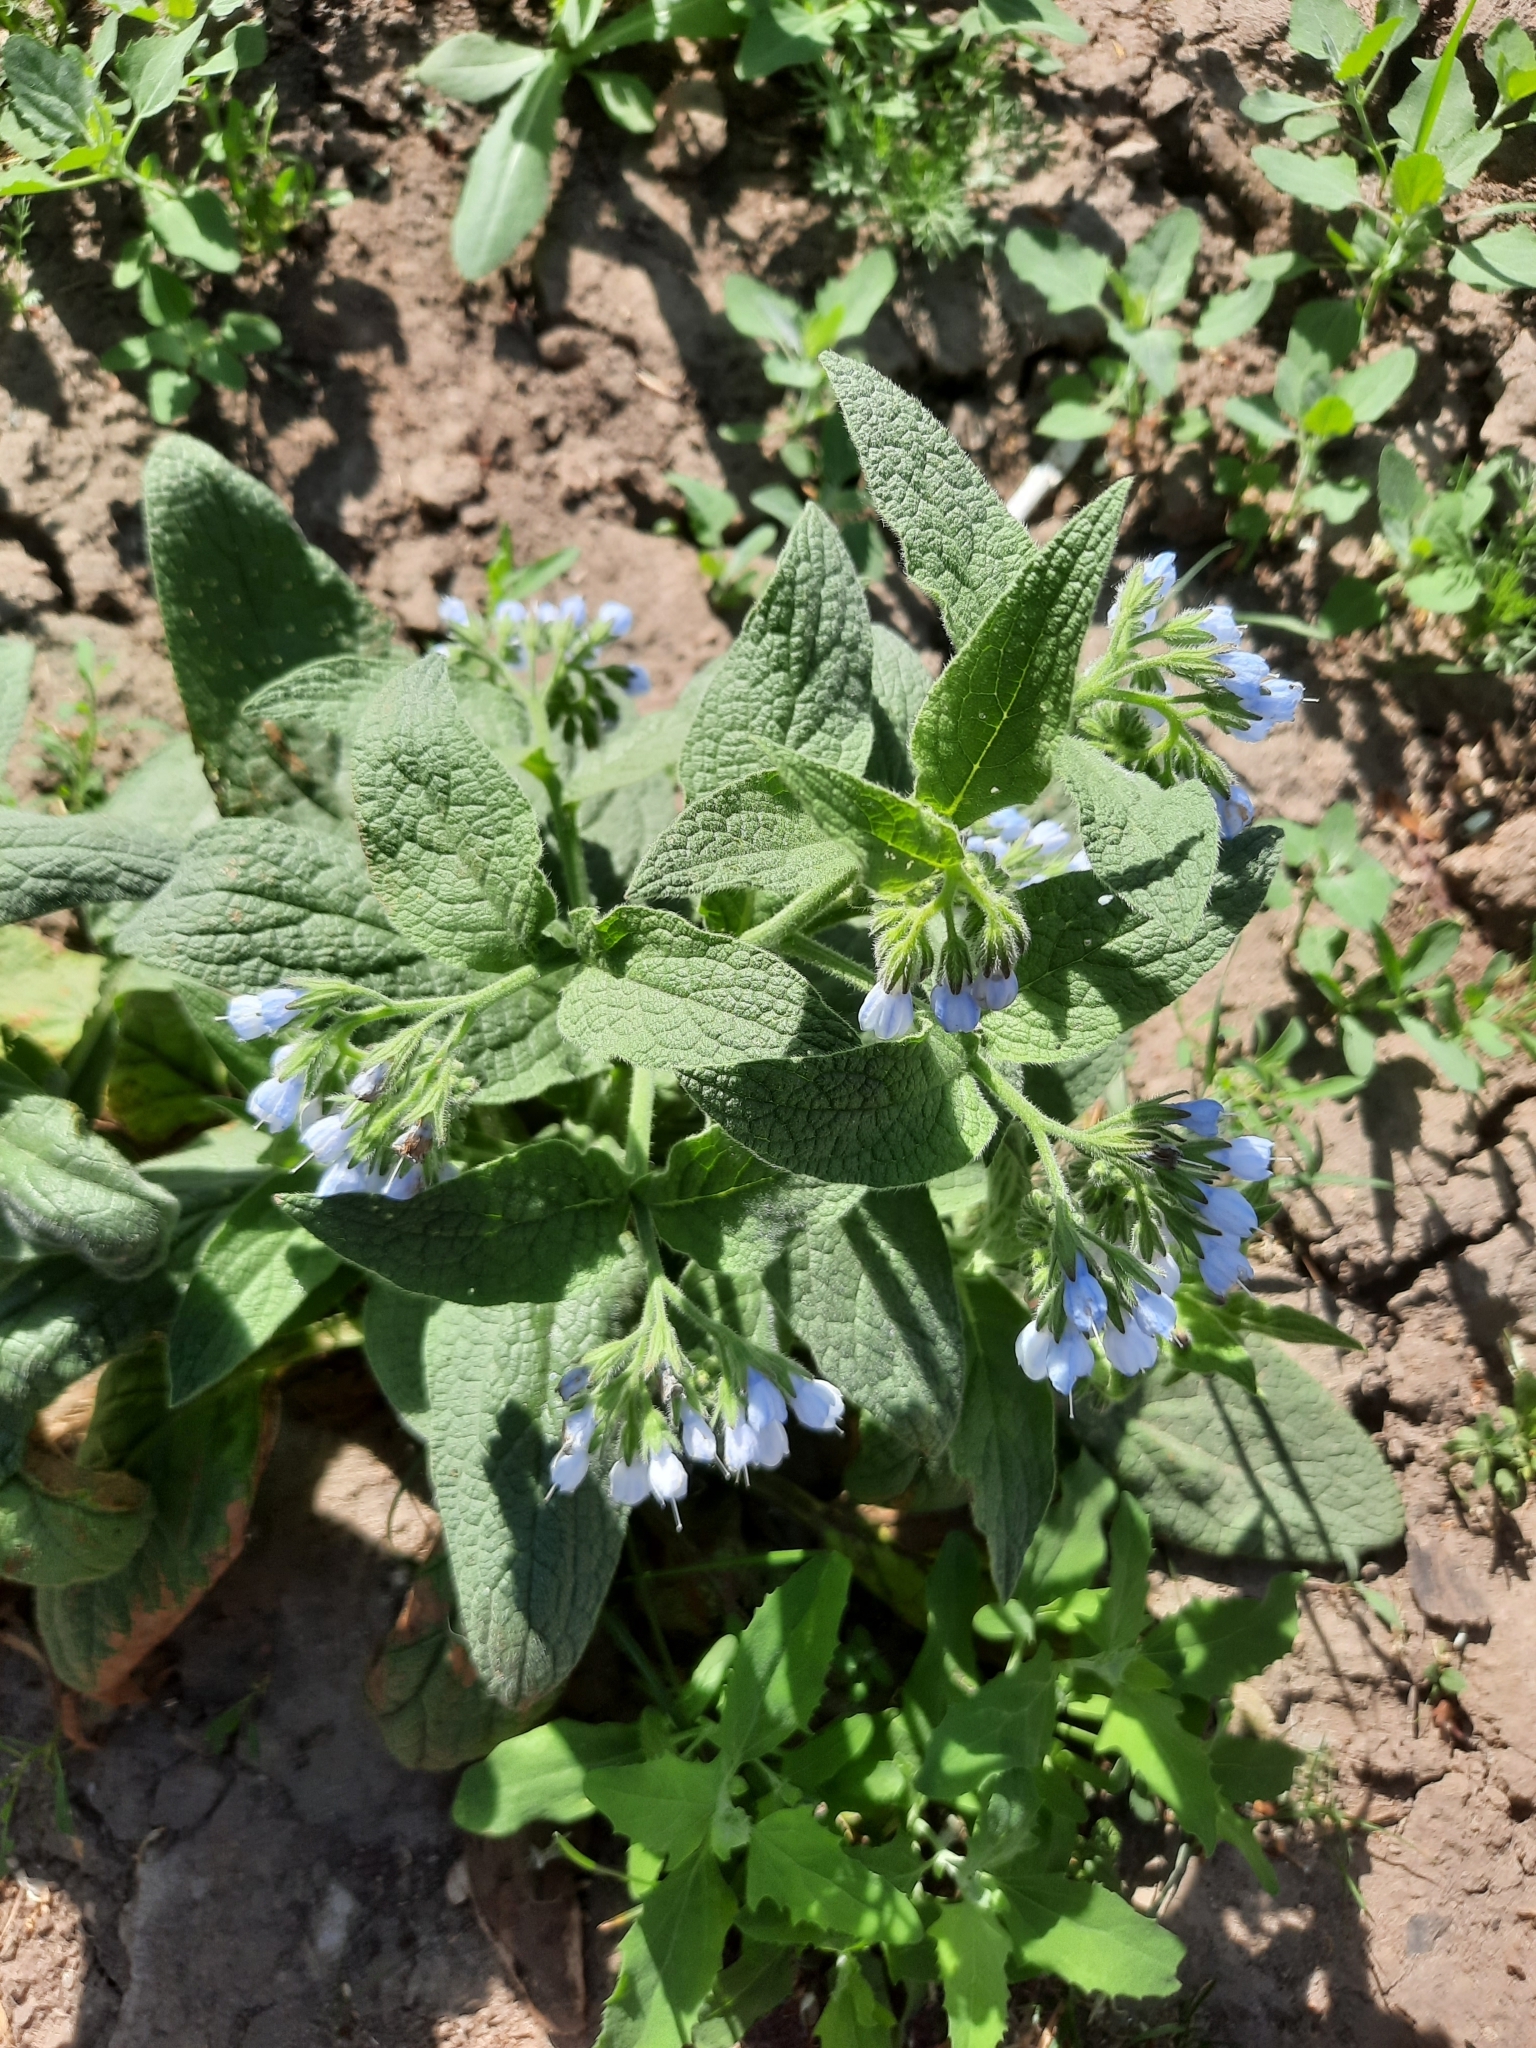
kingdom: Plantae
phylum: Tracheophyta
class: Magnoliopsida
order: Boraginales
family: Boraginaceae
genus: Symphytum
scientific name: Symphytum caucasicum
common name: Caucasian comfrey
